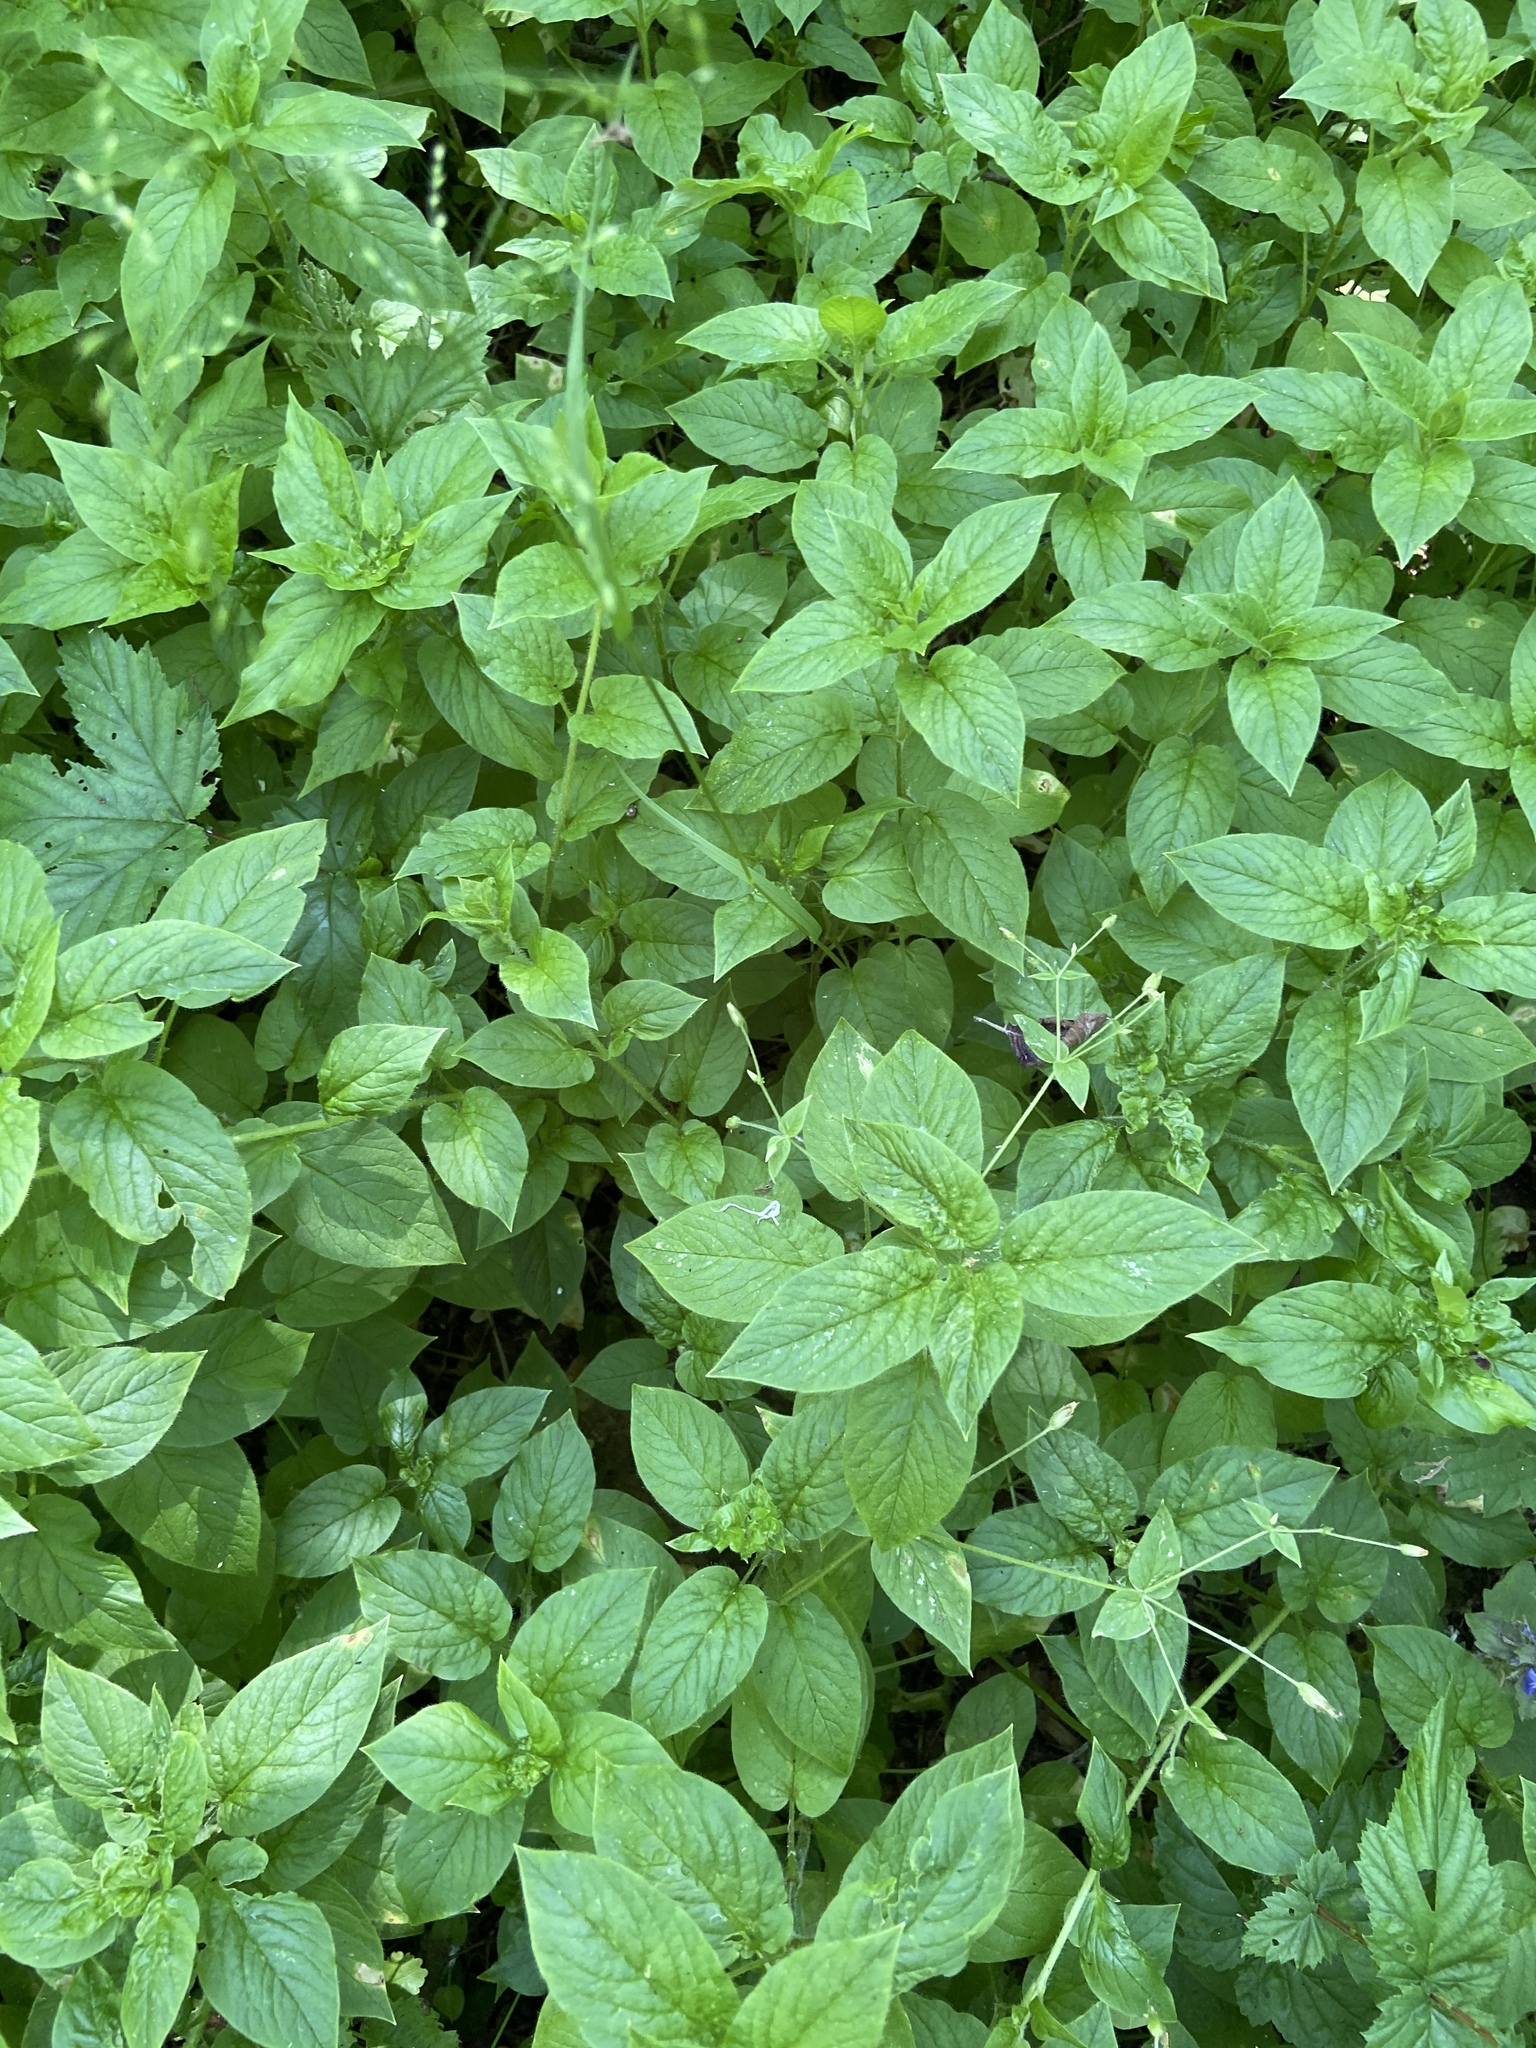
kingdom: Plantae
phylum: Tracheophyta
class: Magnoliopsida
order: Caryophyllales
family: Caryophyllaceae
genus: Stellaria
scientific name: Stellaria nemorum
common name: Wood stitchwort
